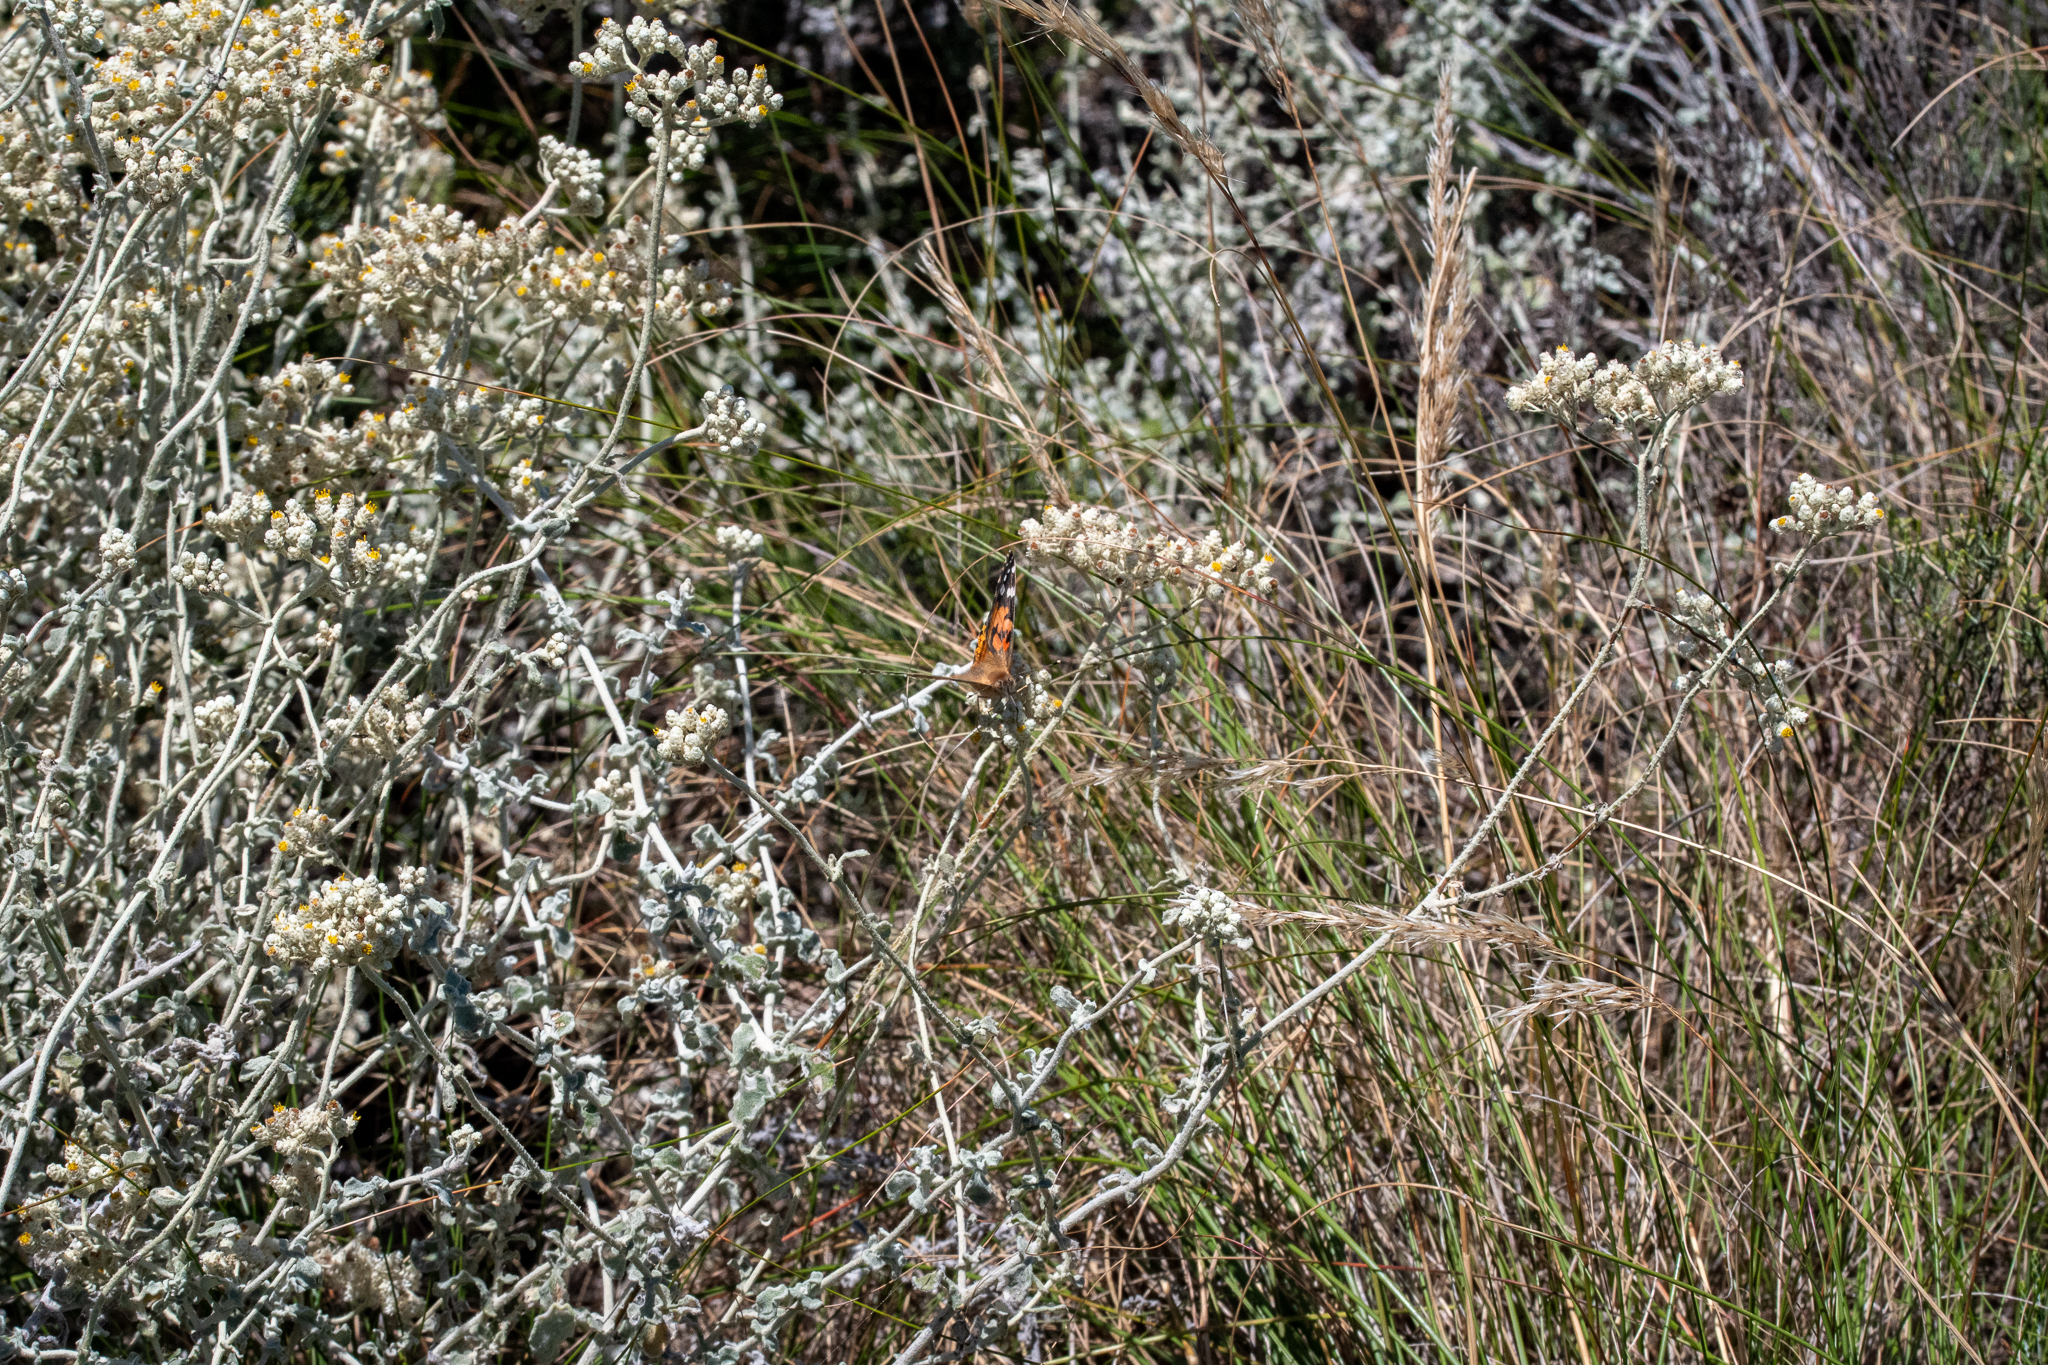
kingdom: Plantae
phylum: Tracheophyta
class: Magnoliopsida
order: Asterales
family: Asteraceae
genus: Helichrysum
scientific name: Helichrysum patulum
